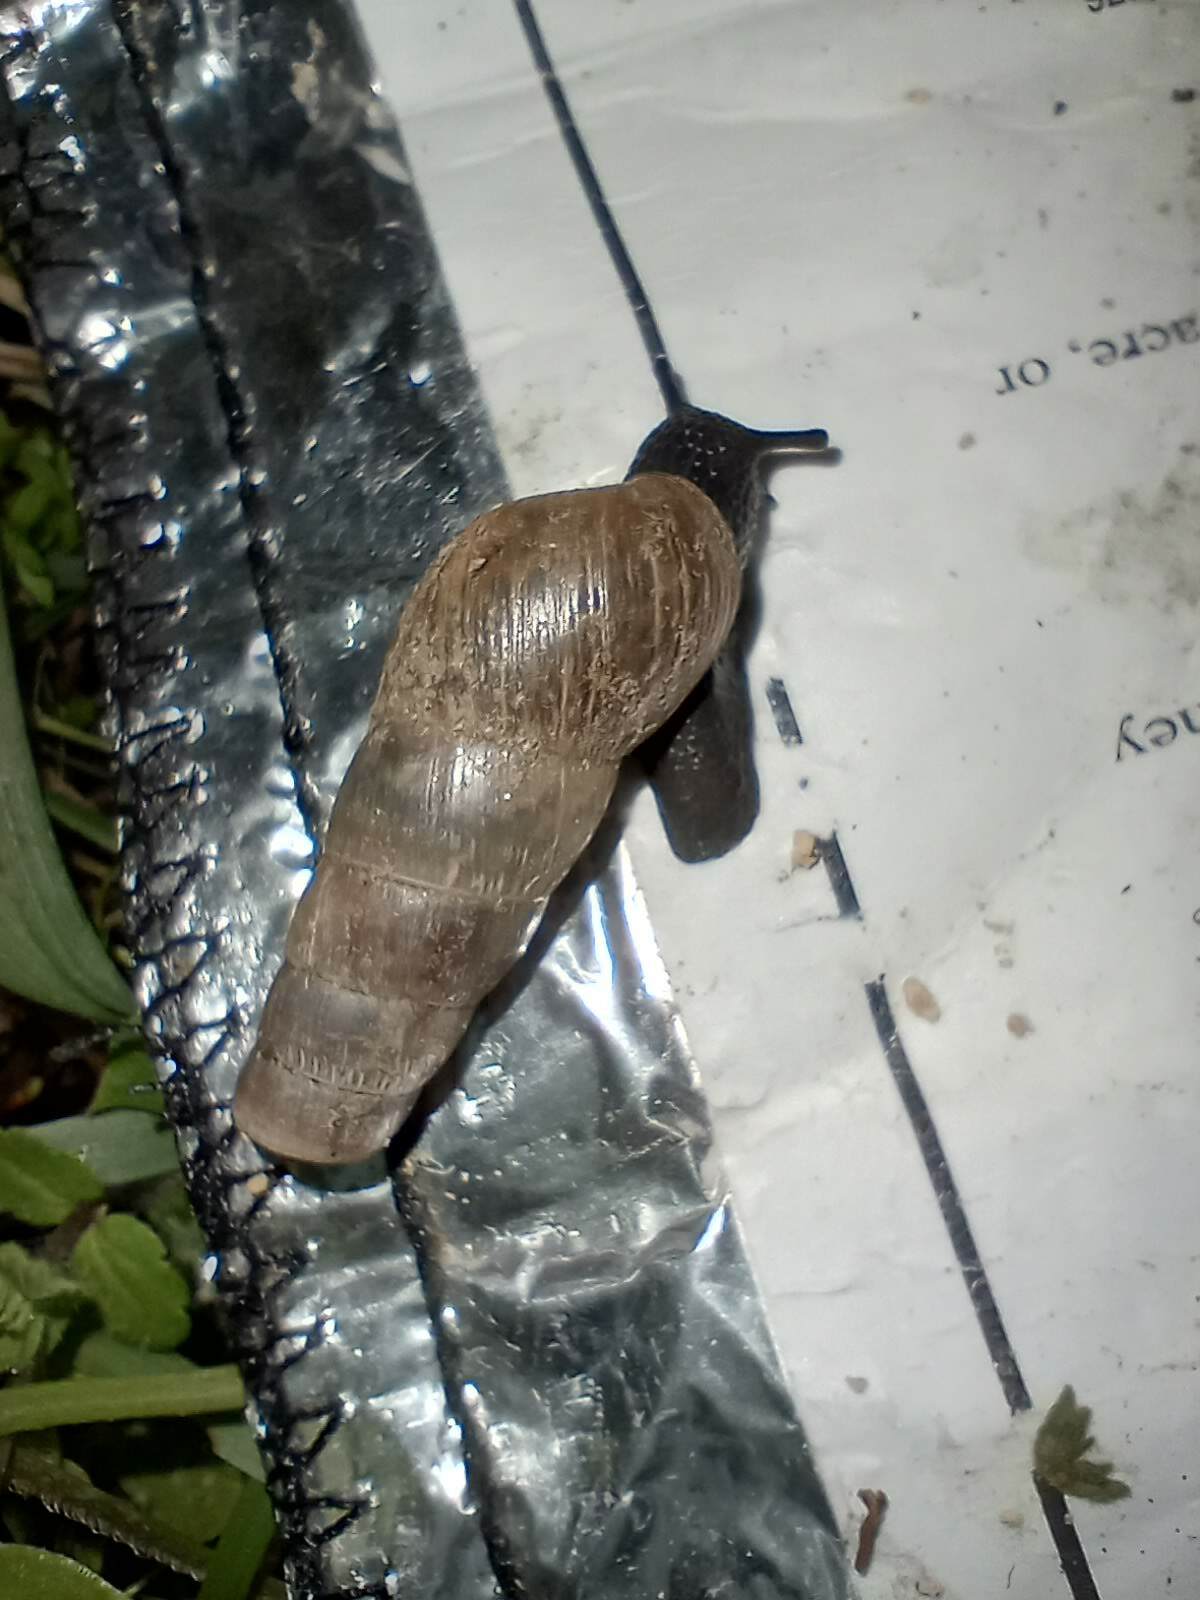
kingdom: Animalia
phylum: Mollusca
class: Gastropoda
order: Stylommatophora
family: Achatinidae
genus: Rumina
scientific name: Rumina decollata
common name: Decollate snail
